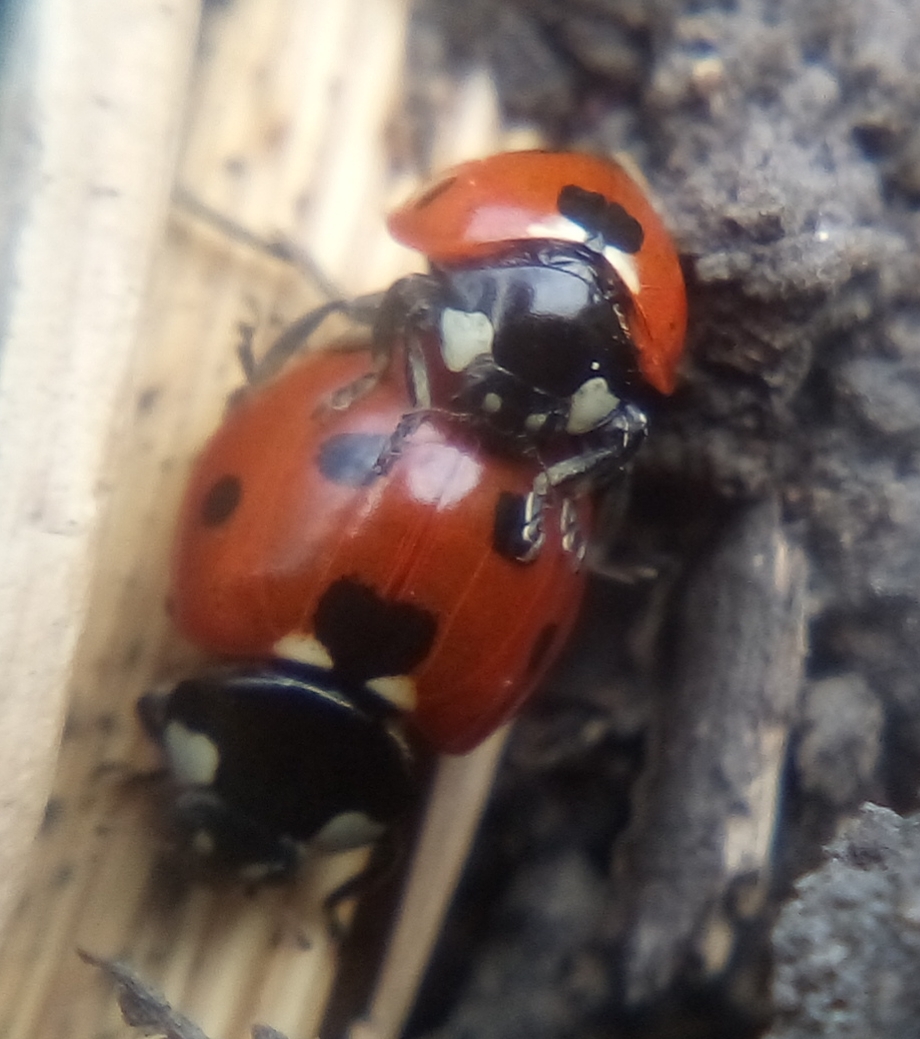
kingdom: Animalia
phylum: Arthropoda
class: Insecta
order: Coleoptera
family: Coccinellidae
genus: Coccinella
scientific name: Coccinella septempunctata
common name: Sevenspotted lady beetle
